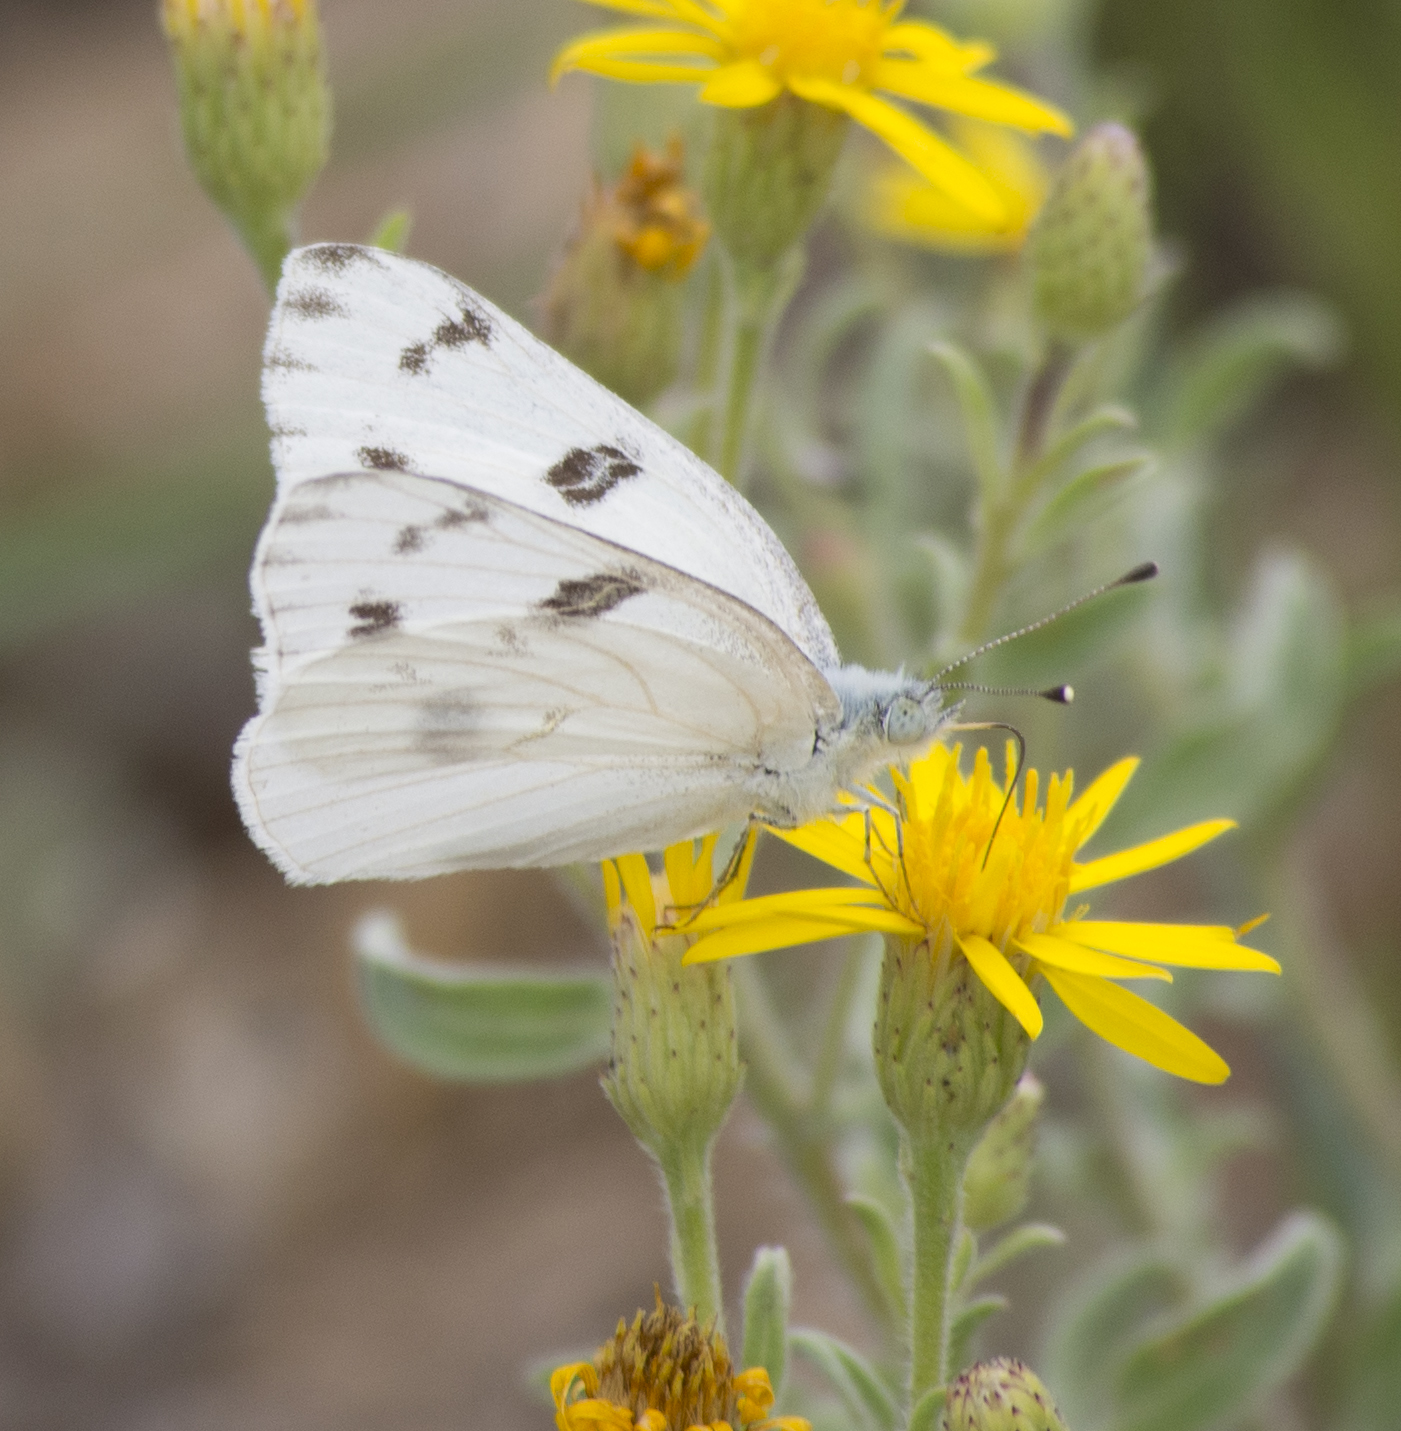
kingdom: Animalia
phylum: Arthropoda
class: Insecta
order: Lepidoptera
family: Pieridae
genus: Pontia
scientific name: Pontia protodice
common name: Checkered white
